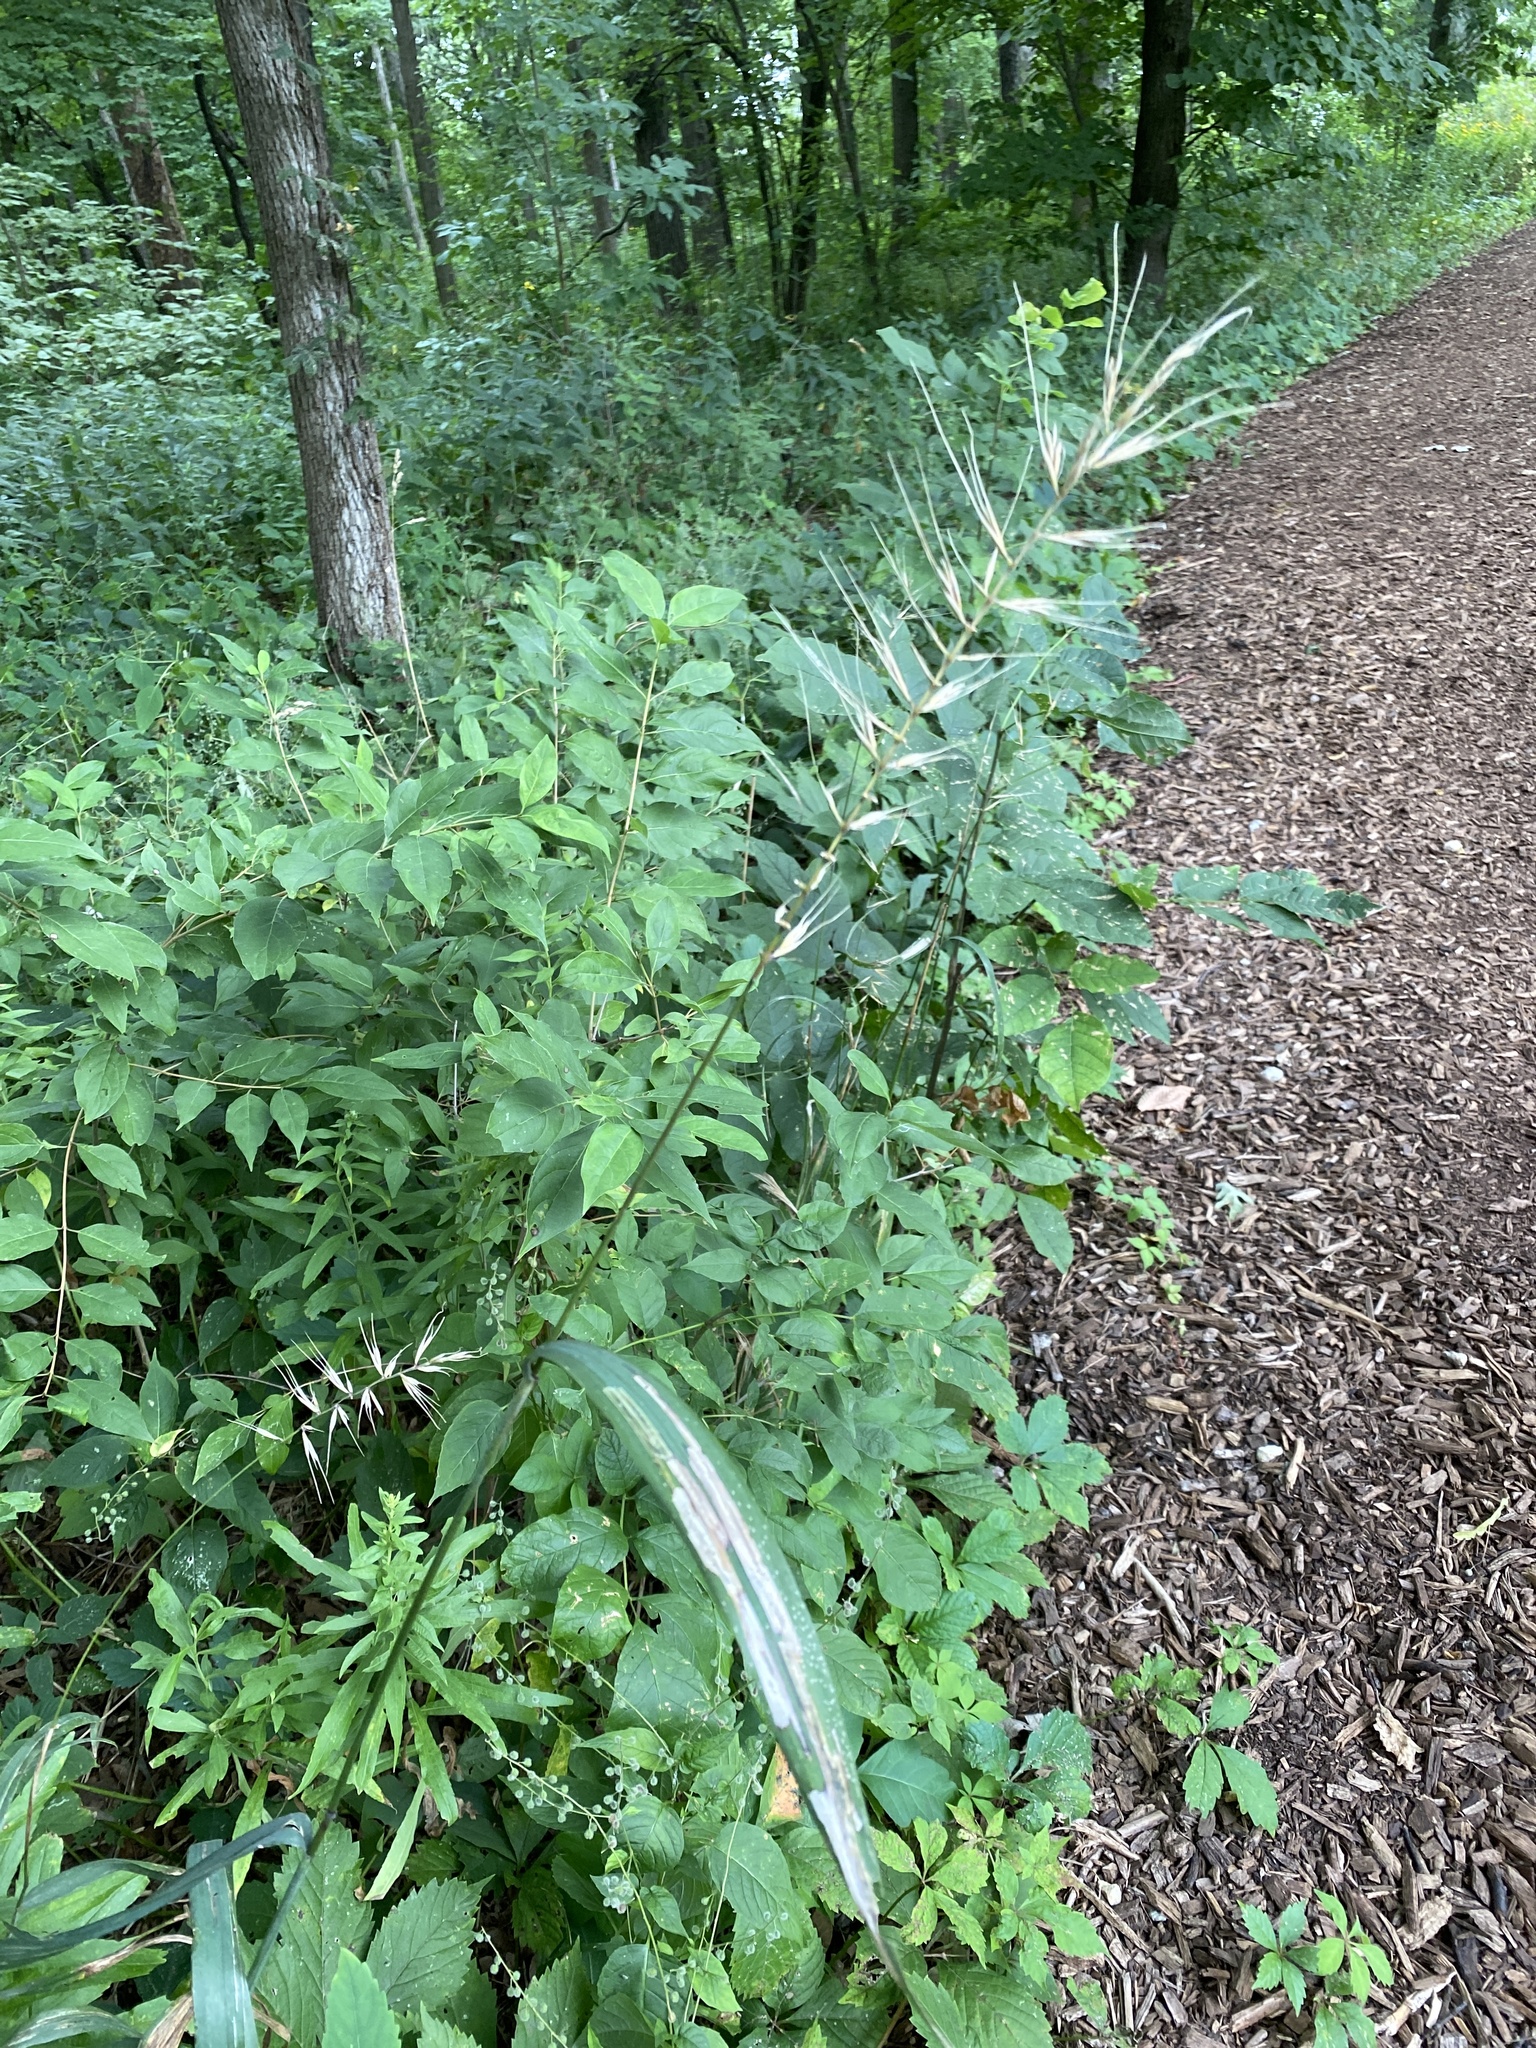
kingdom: Plantae
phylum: Tracheophyta
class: Liliopsida
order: Poales
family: Poaceae
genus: Elymus
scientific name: Elymus hystrix
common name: Bottlebrush grass
